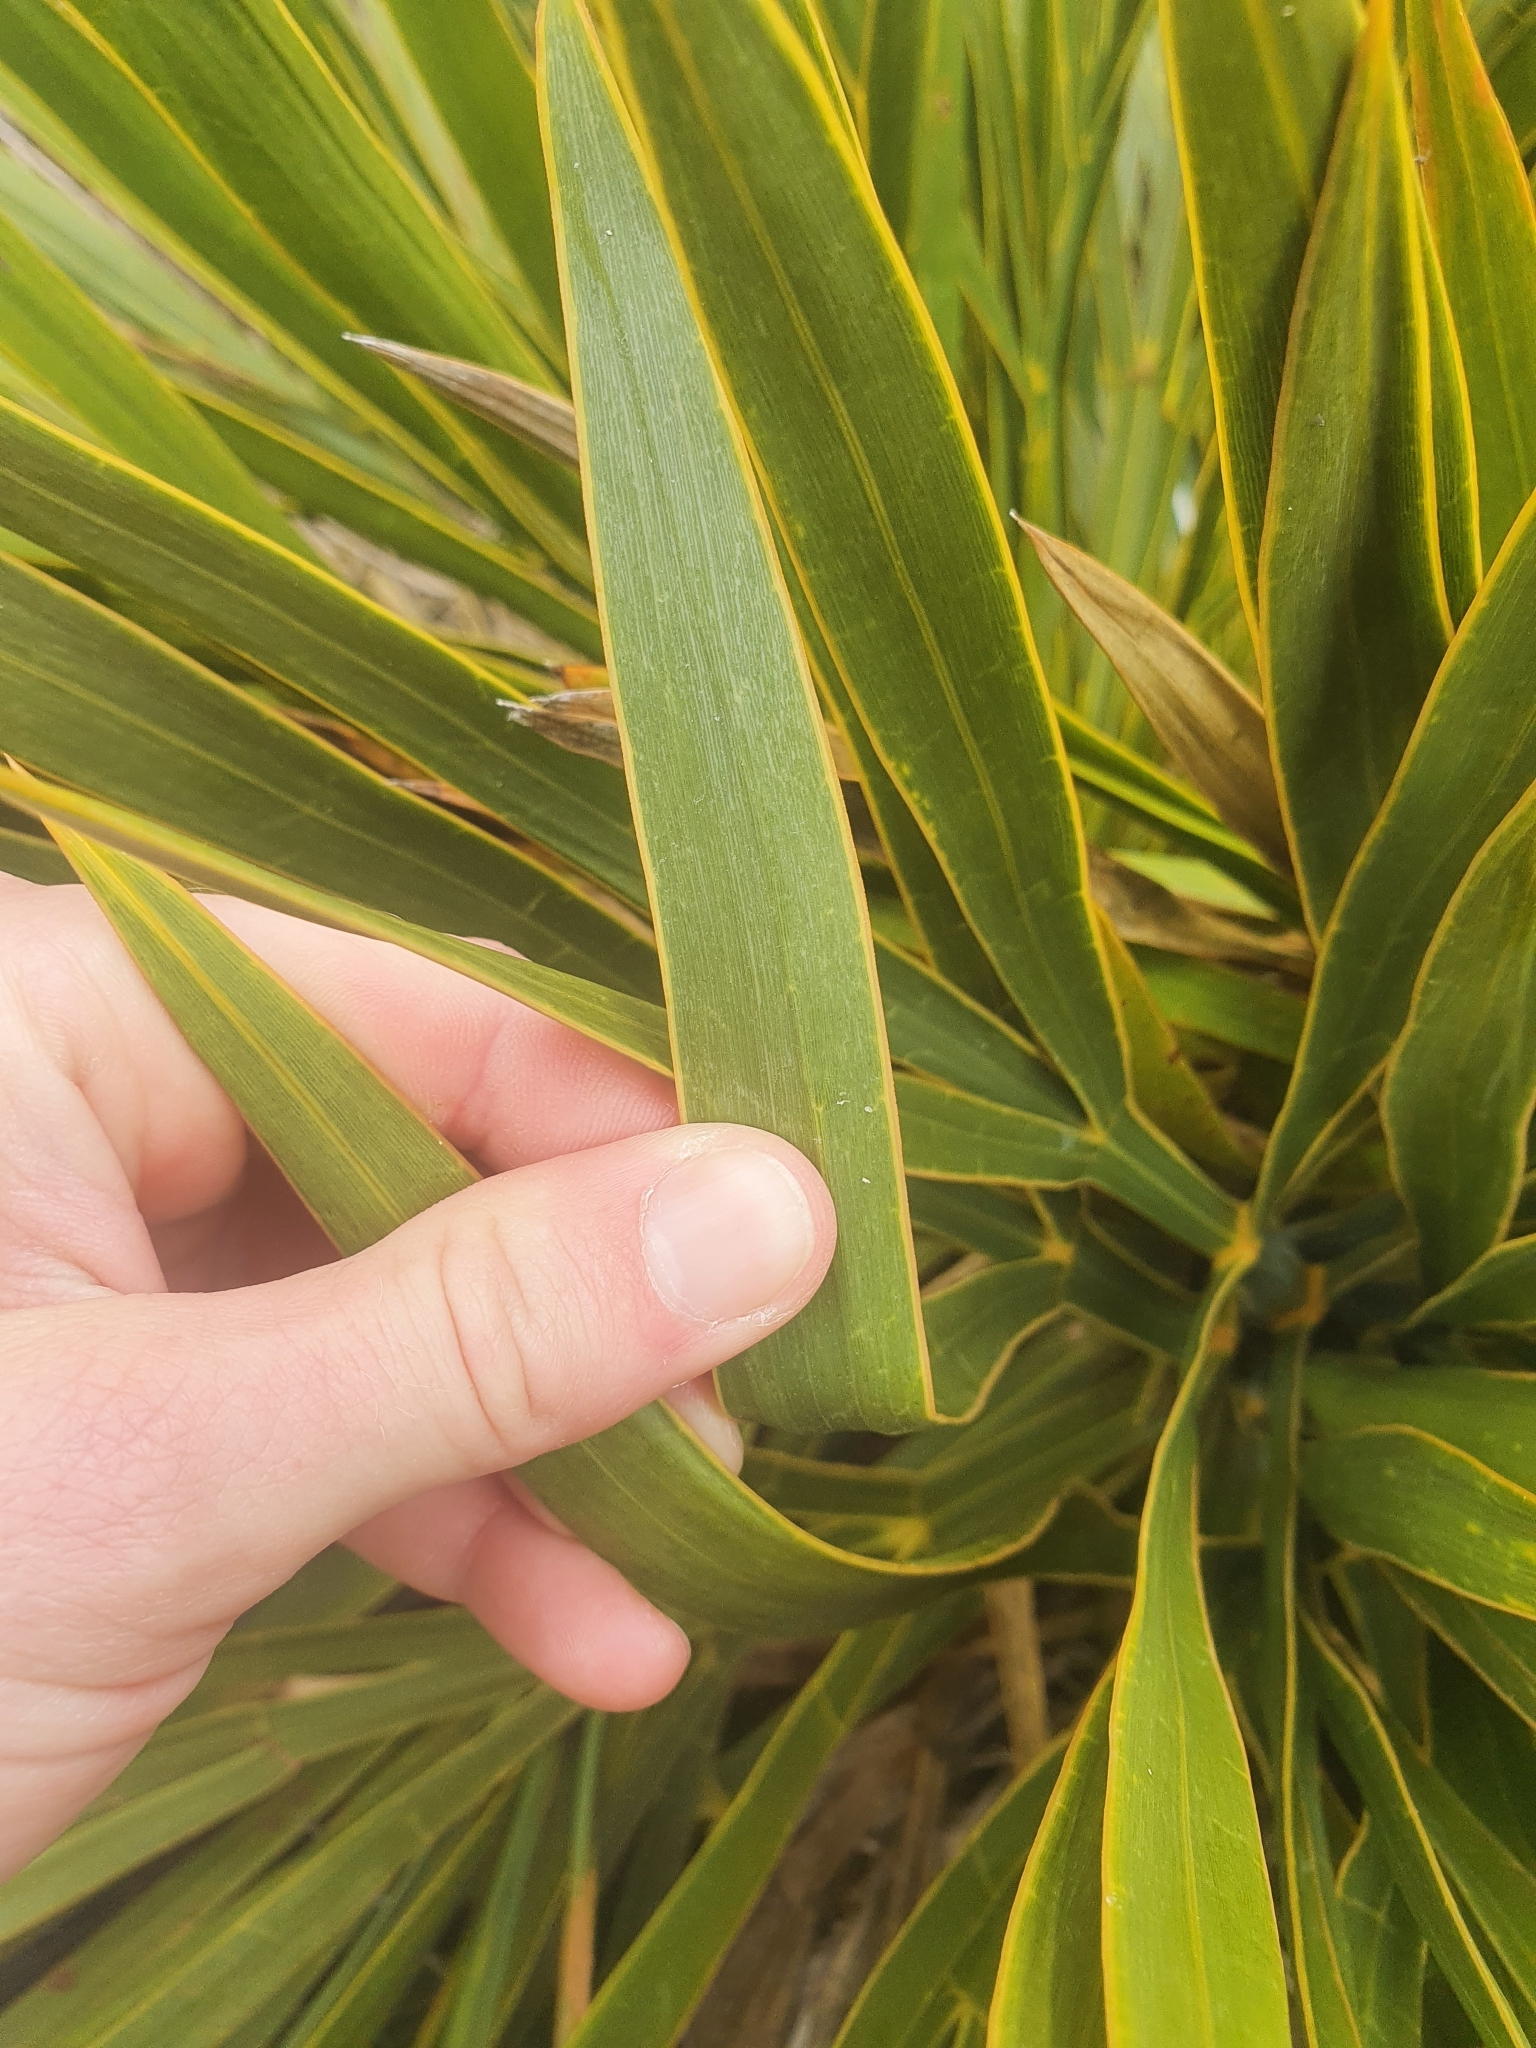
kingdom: Plantae
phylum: Tracheophyta
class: Magnoliopsida
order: Apiales
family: Apiaceae
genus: Aciphylla
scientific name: Aciphylla horrida
